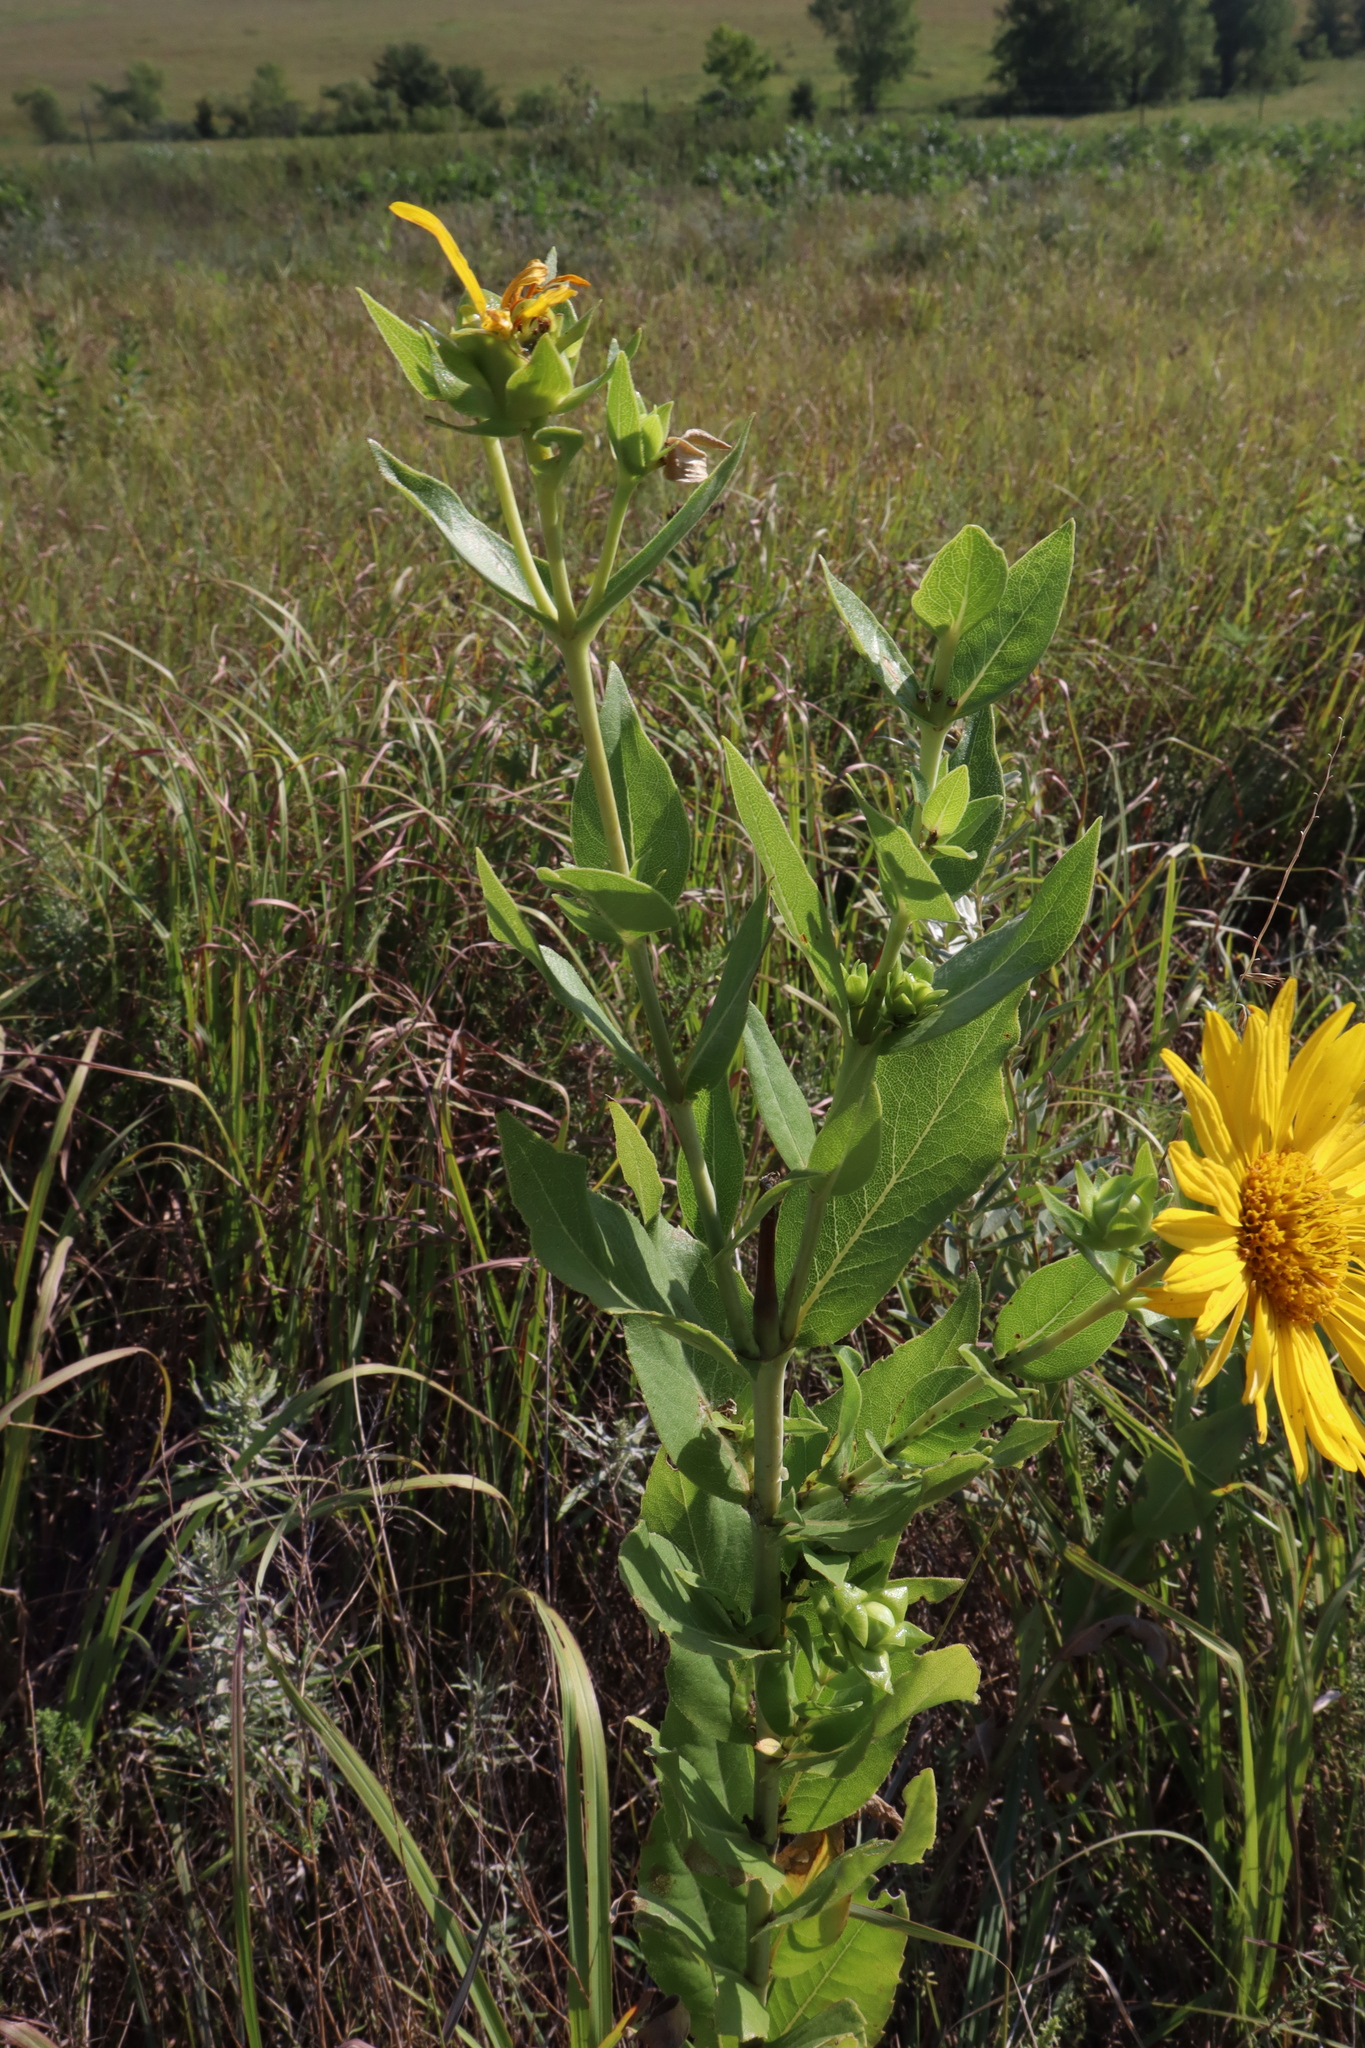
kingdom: Plantae
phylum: Tracheophyta
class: Magnoliopsida
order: Asterales
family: Asteraceae
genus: Silphium
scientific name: Silphium integrifolium
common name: Whole-leaf rosinweed
